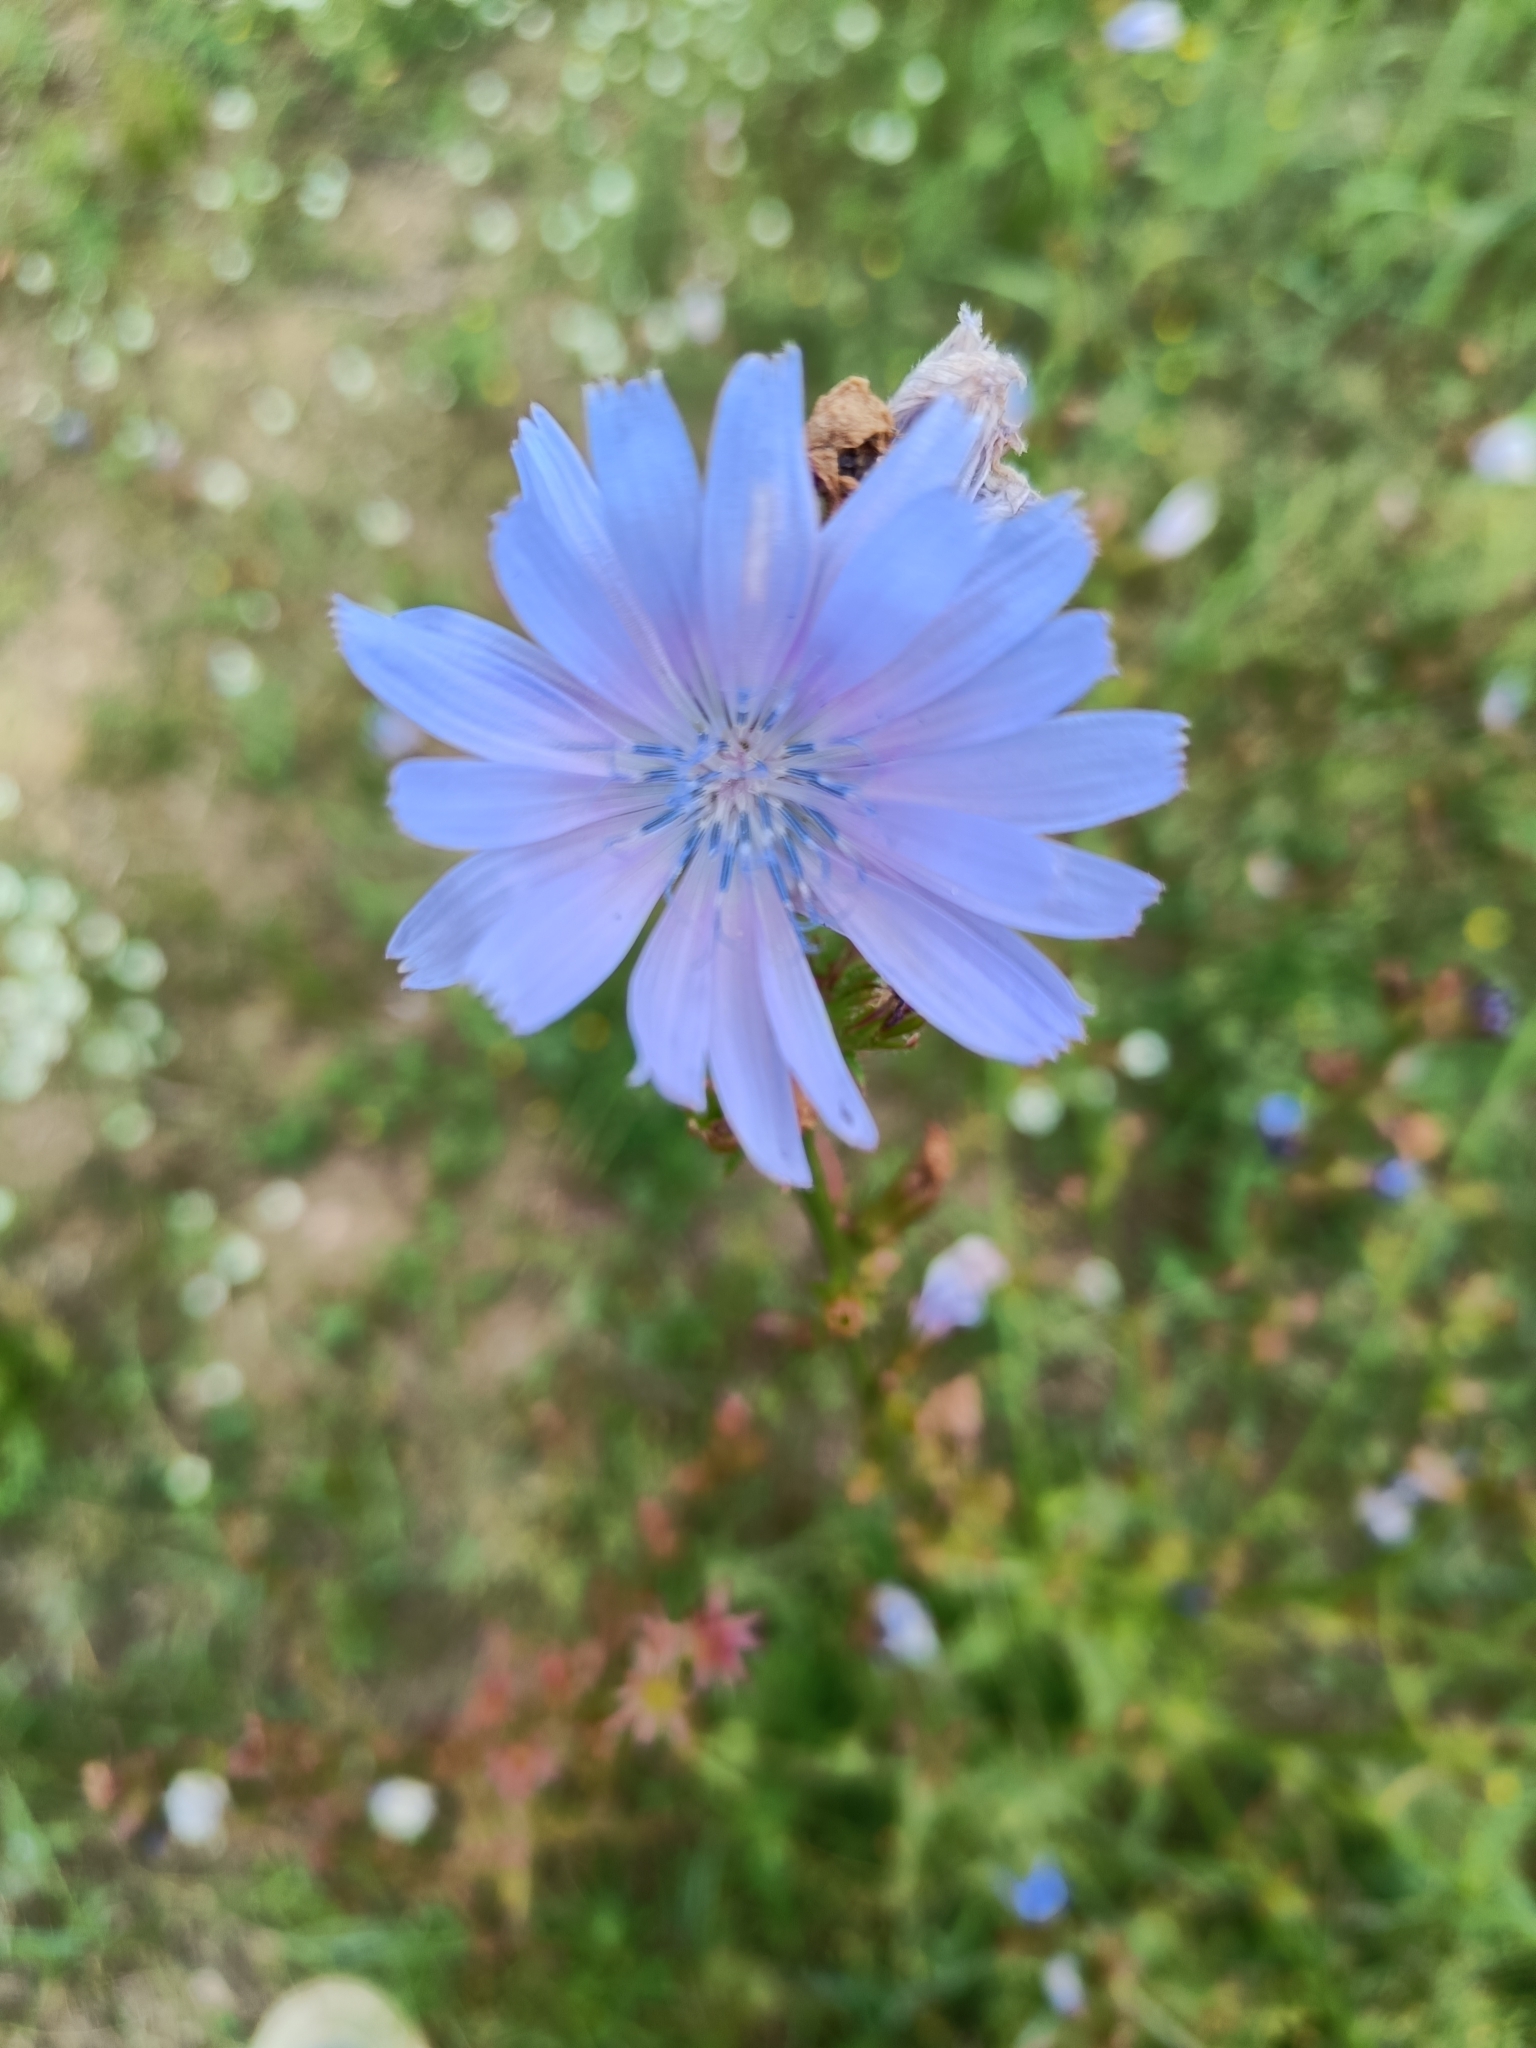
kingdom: Plantae
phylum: Tracheophyta
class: Magnoliopsida
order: Asterales
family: Asteraceae
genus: Cichorium
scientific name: Cichorium intybus
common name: Chicory
